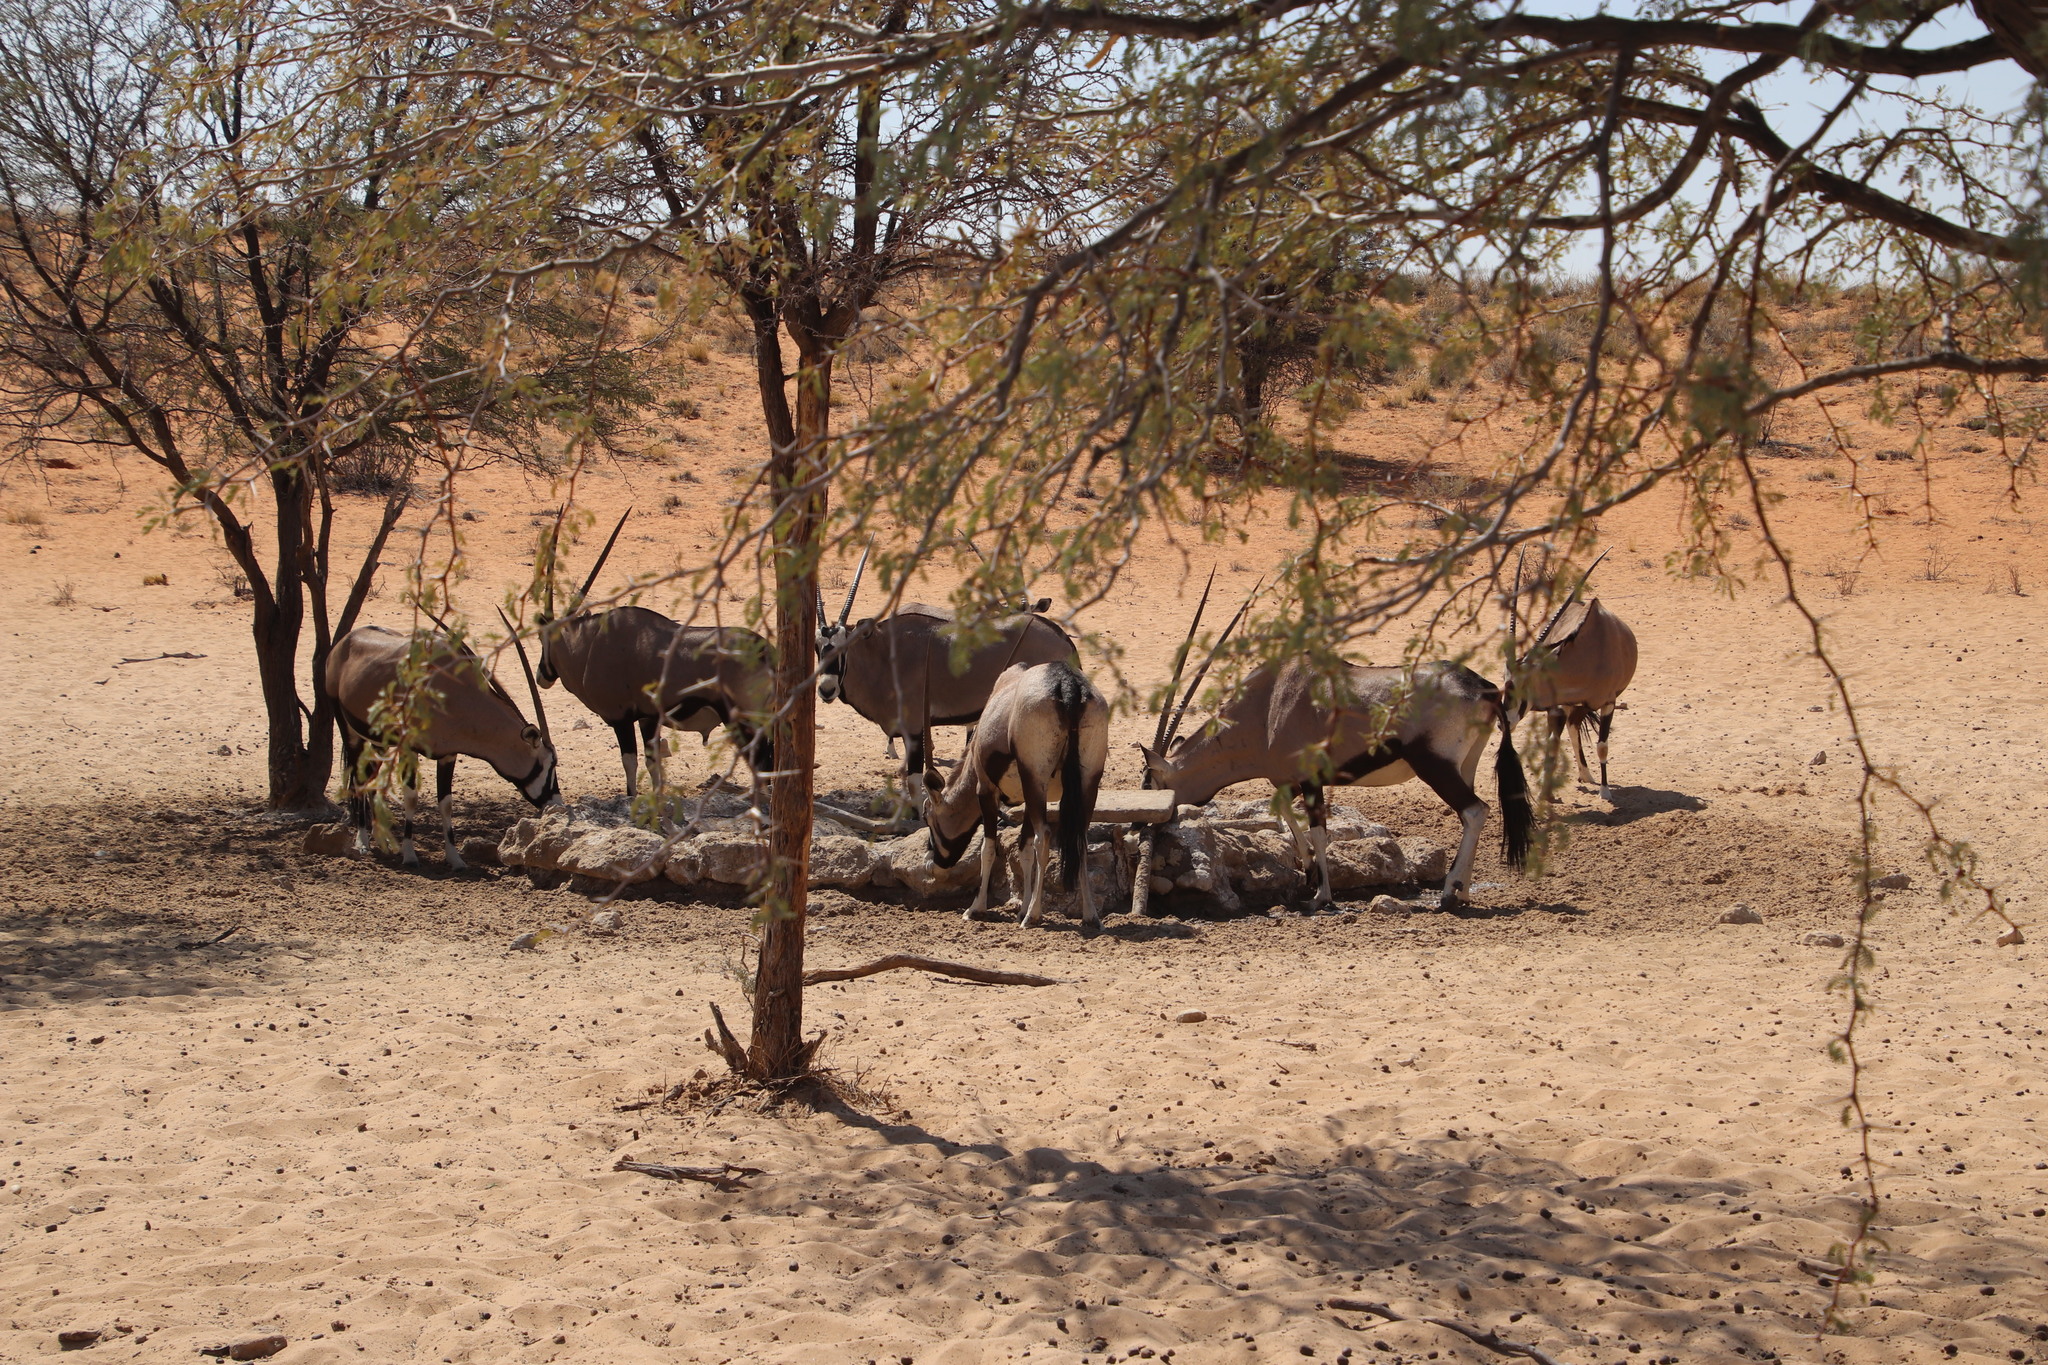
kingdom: Animalia
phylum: Chordata
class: Mammalia
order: Artiodactyla
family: Bovidae
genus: Oryx
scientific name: Oryx gazella
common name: Gemsbok
